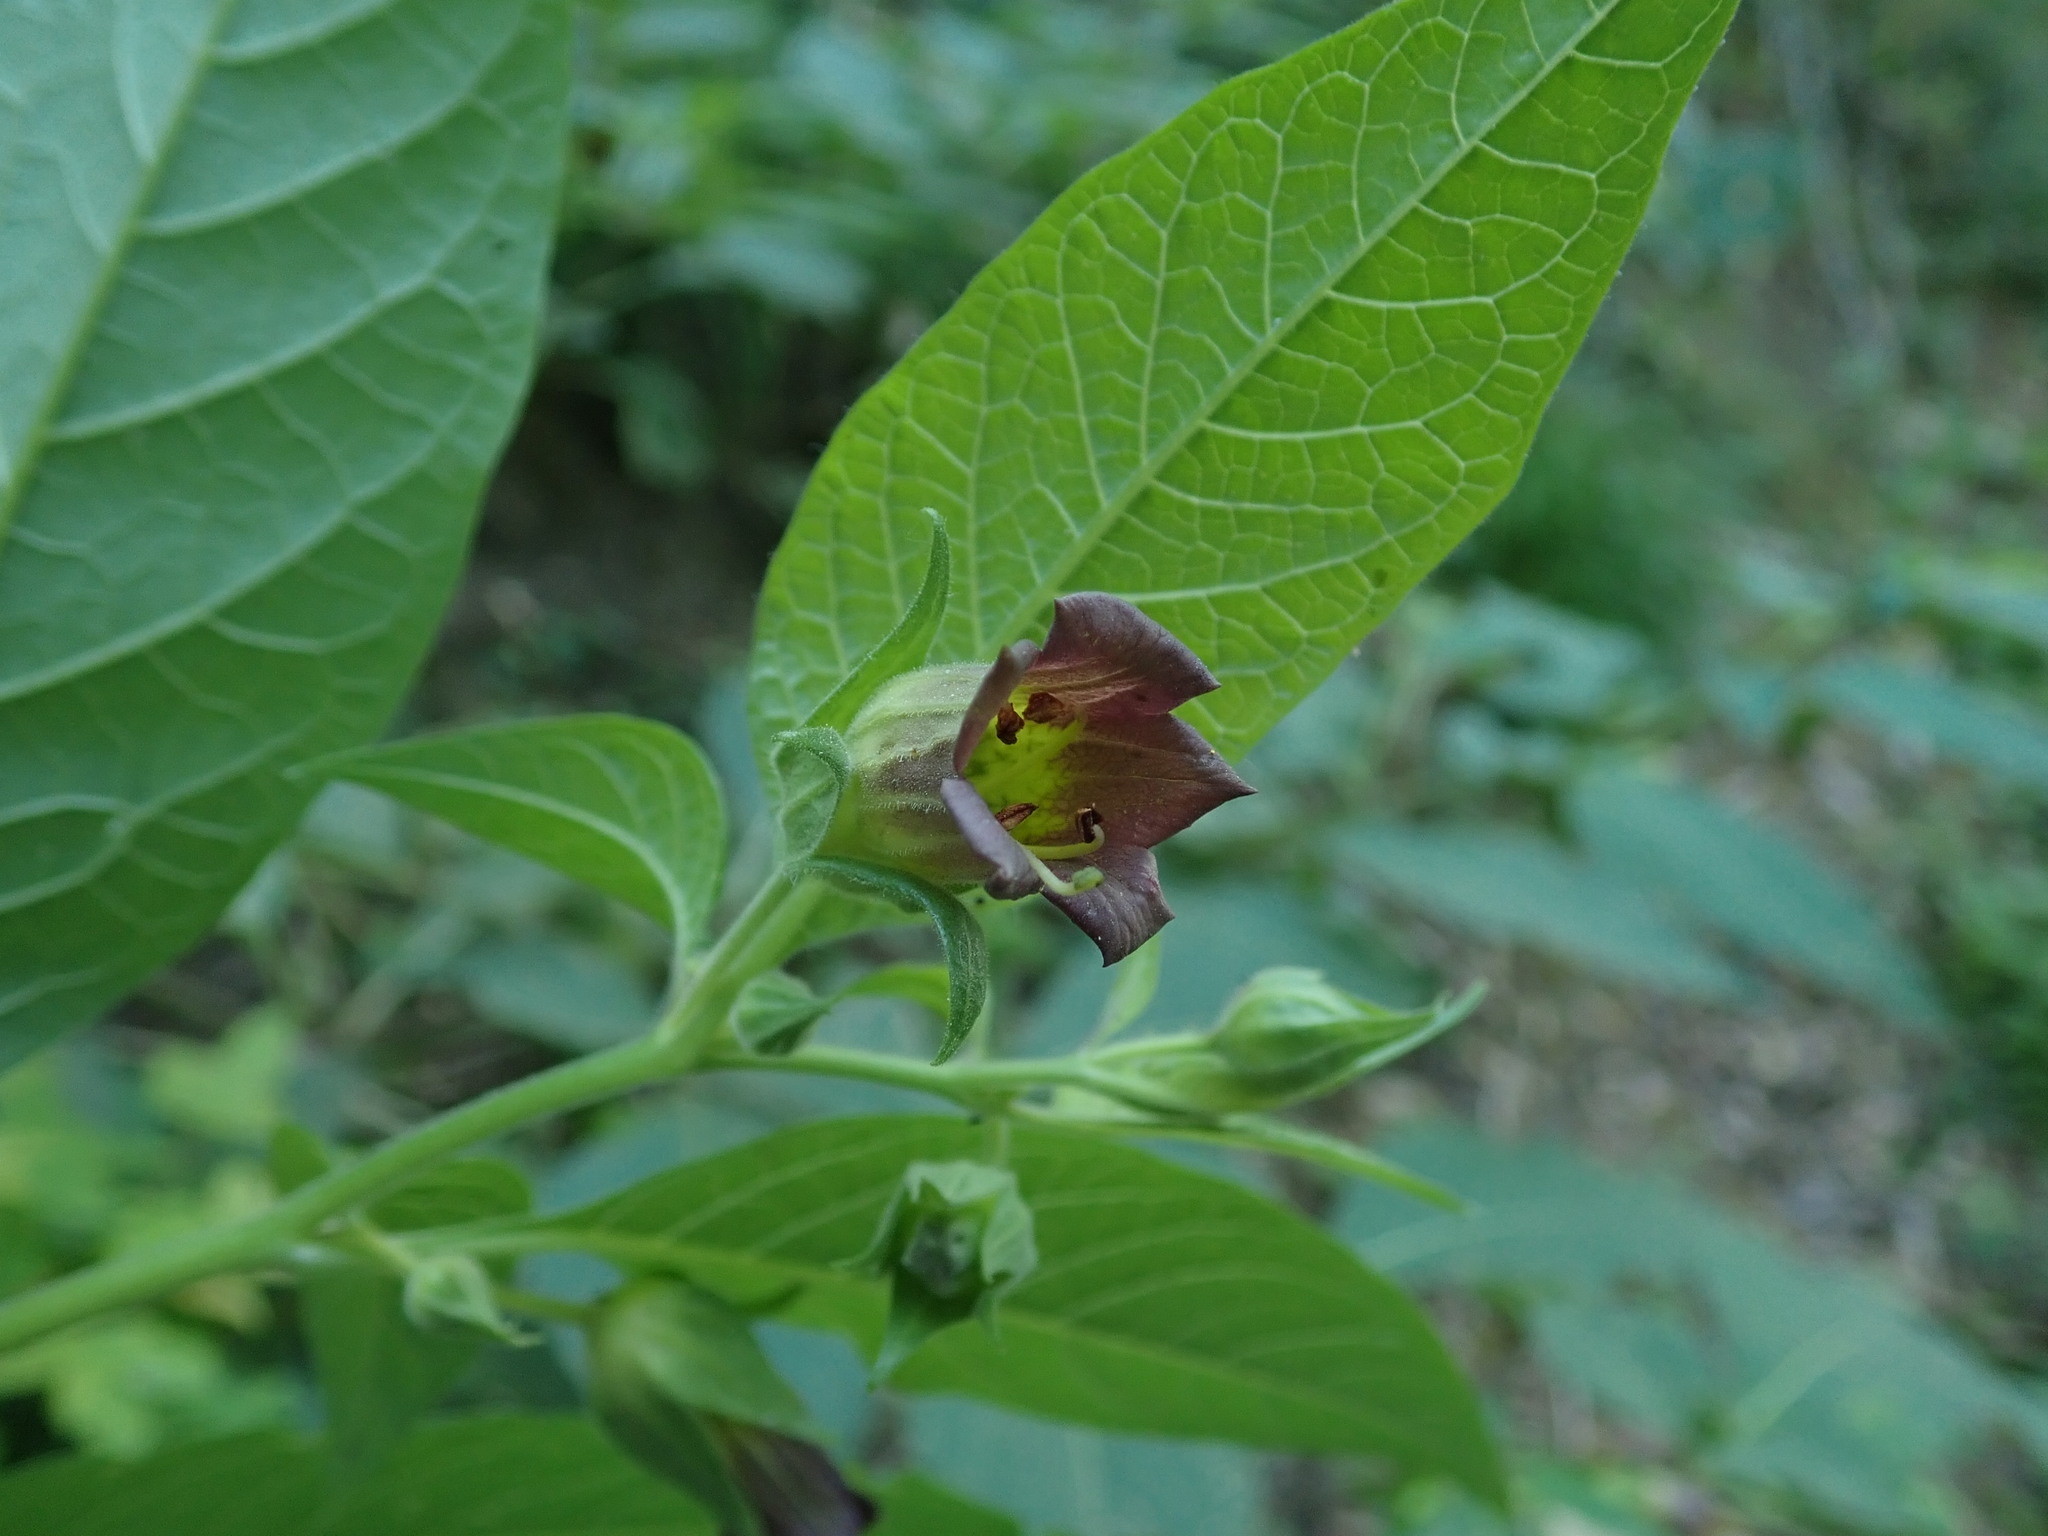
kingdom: Plantae
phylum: Tracheophyta
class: Magnoliopsida
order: Solanales
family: Solanaceae
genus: Atropa
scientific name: Atropa belladonna
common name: Deadly nightshade
